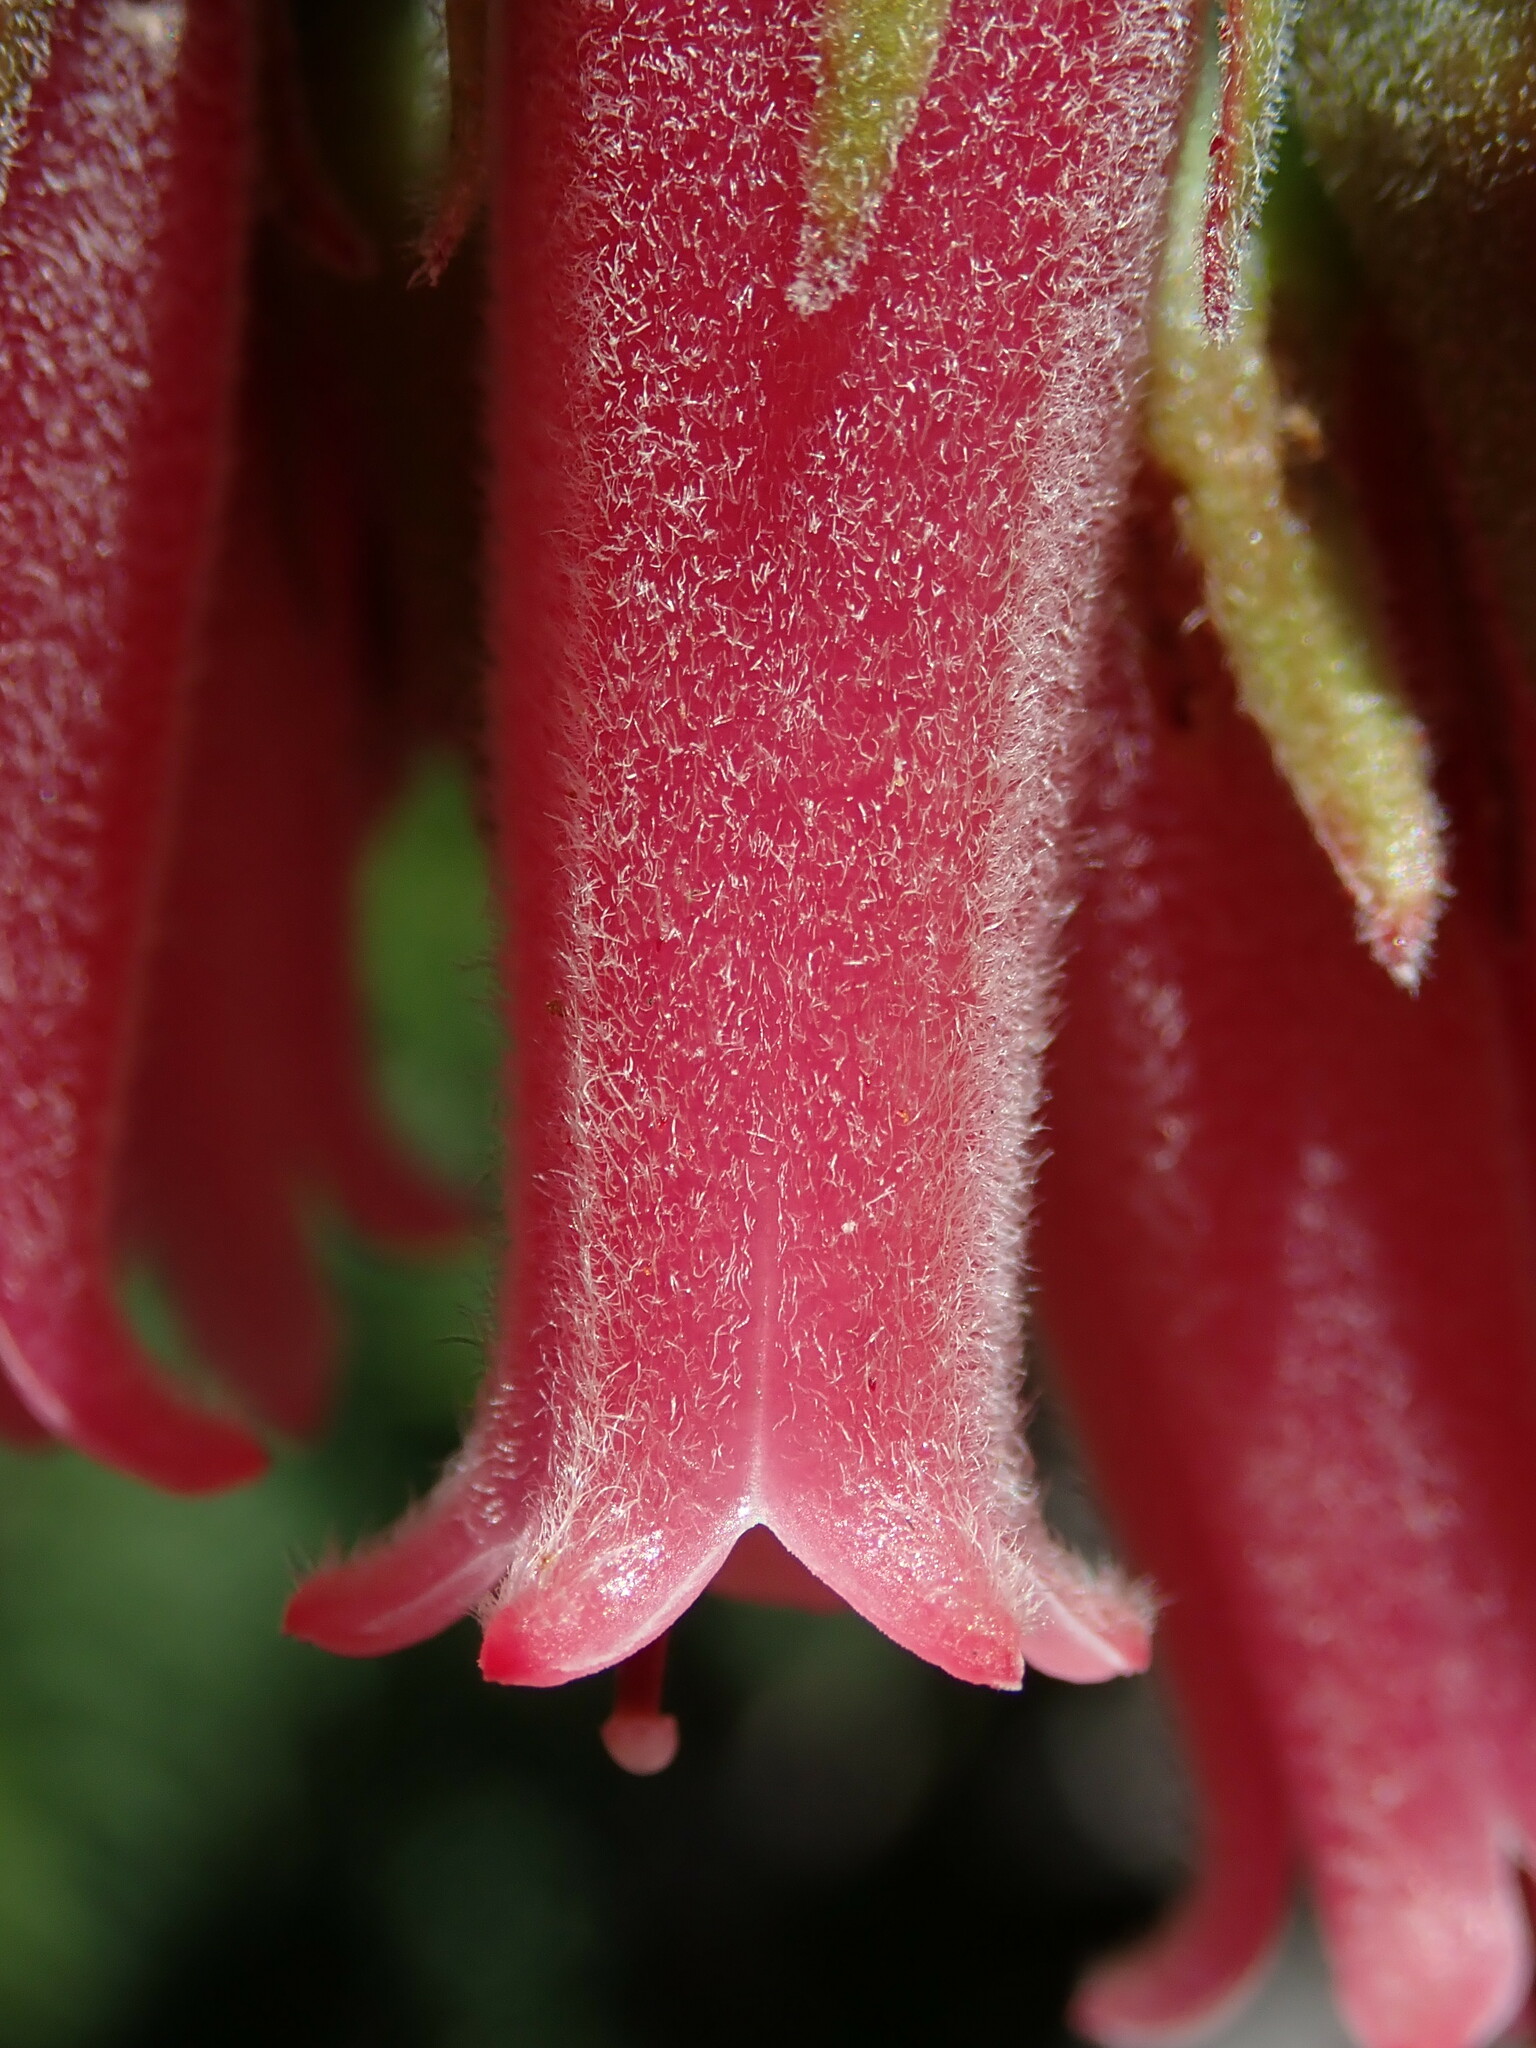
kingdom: Plantae
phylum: Tracheophyta
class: Magnoliopsida
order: Ericales
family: Ericaceae
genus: Macleania
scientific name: Macleania salapa
